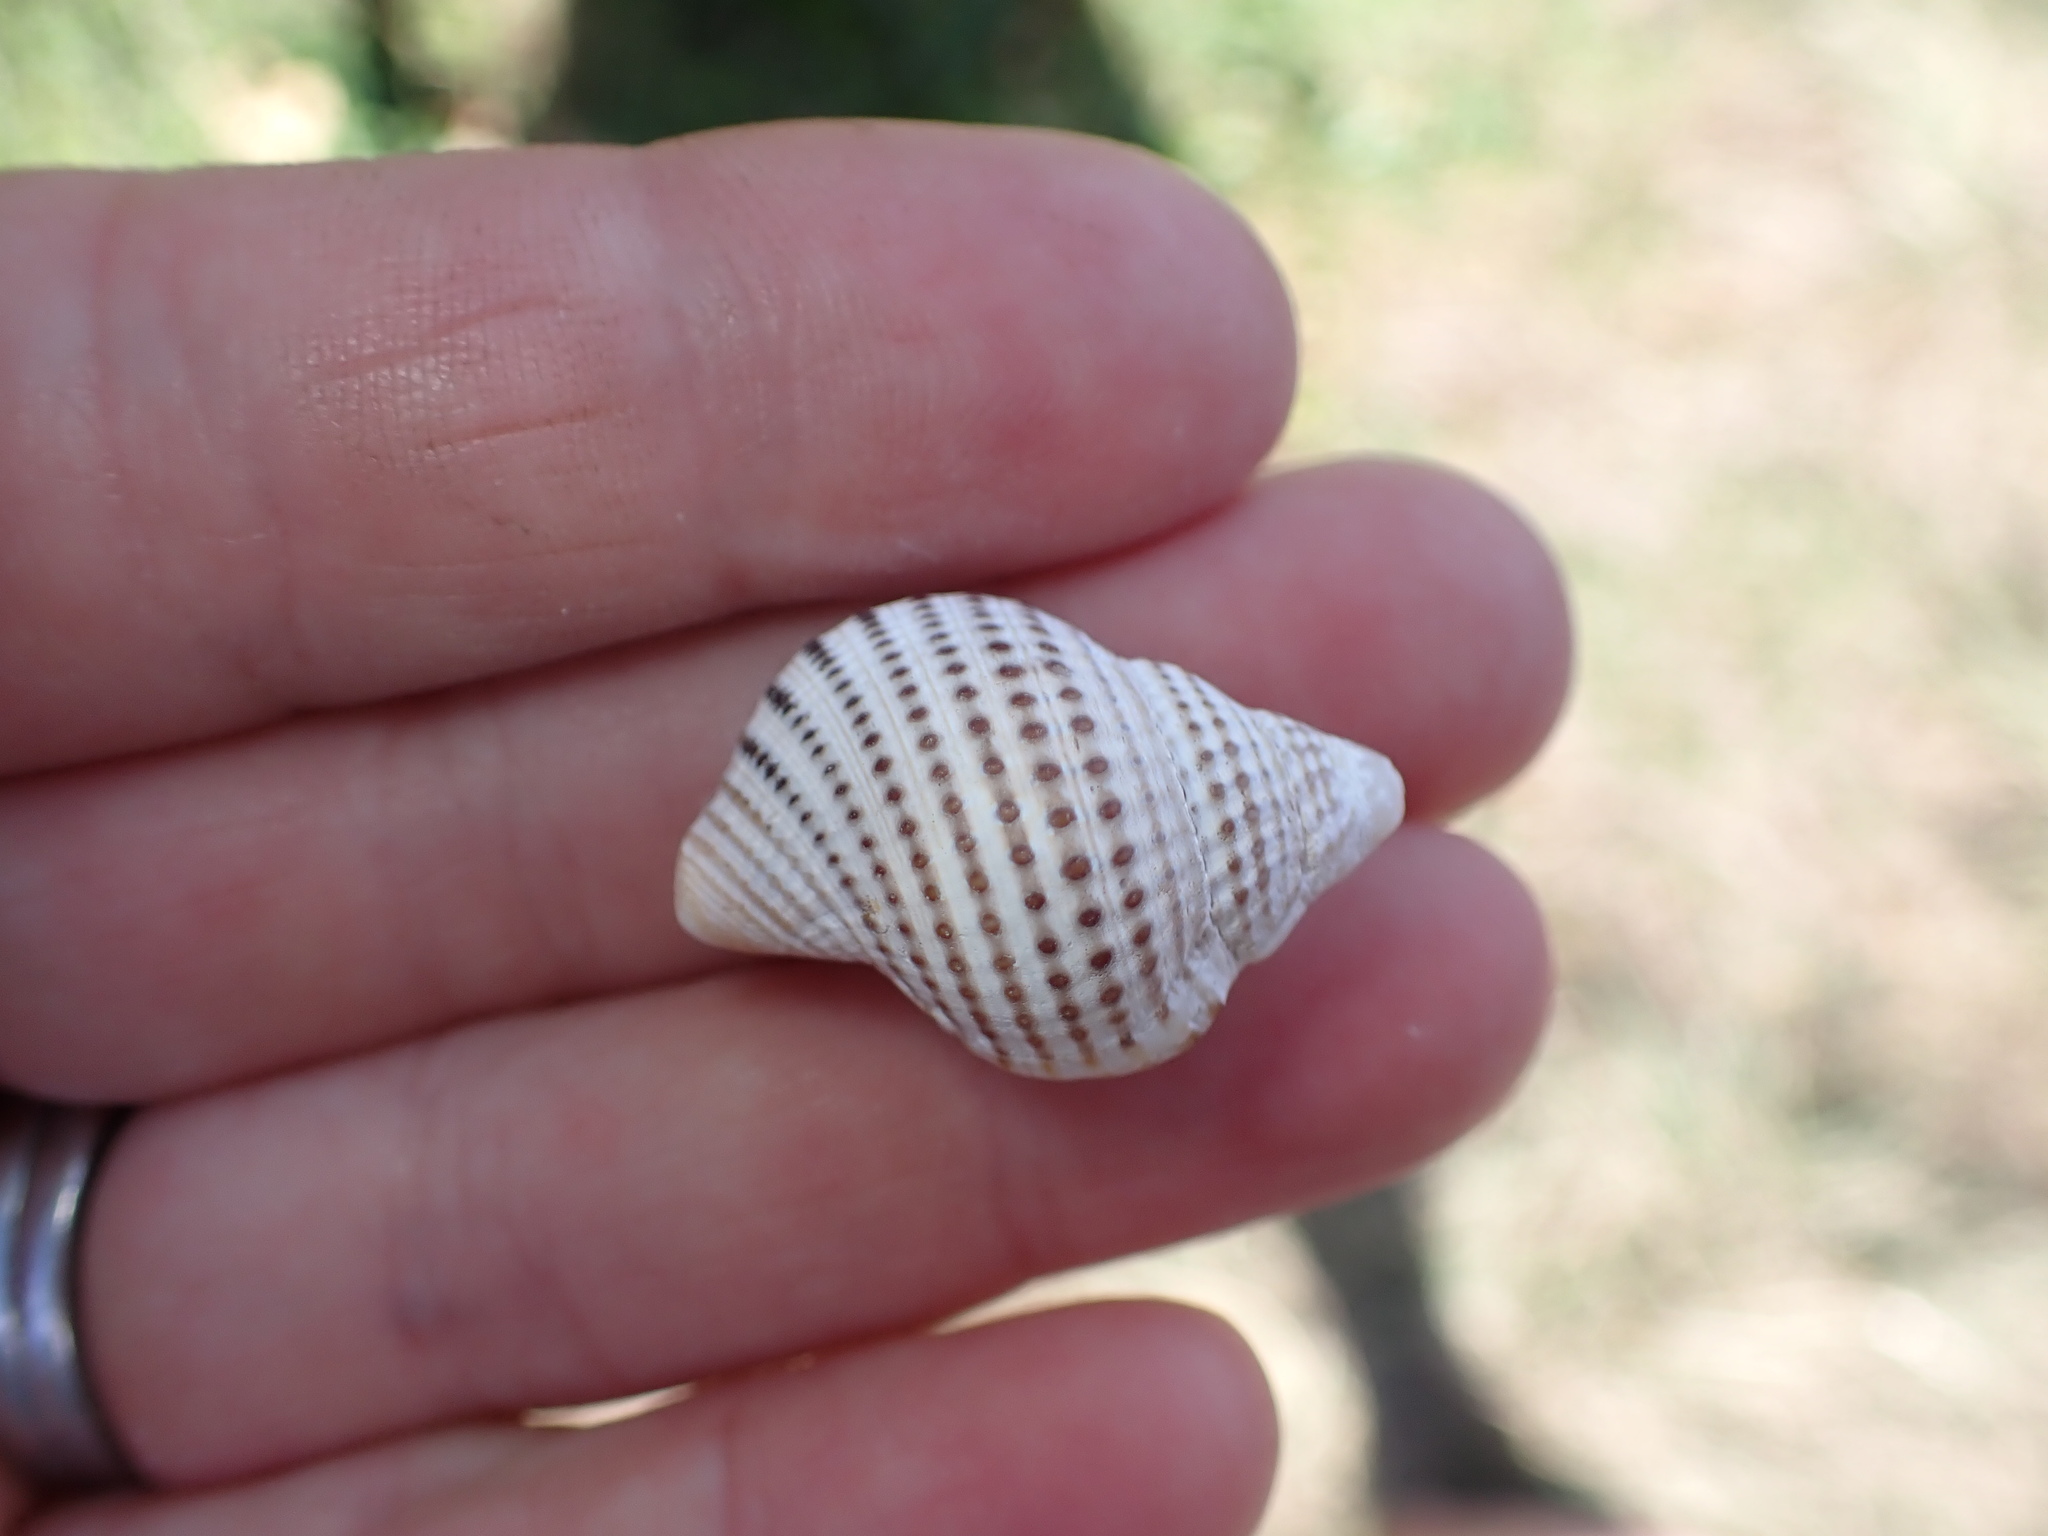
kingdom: Animalia
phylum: Mollusca
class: Gastropoda
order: Littorinimorpha
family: Cymatiidae
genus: Argobuccinum
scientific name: Argobuccinum pustulosum
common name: Pustular triton
